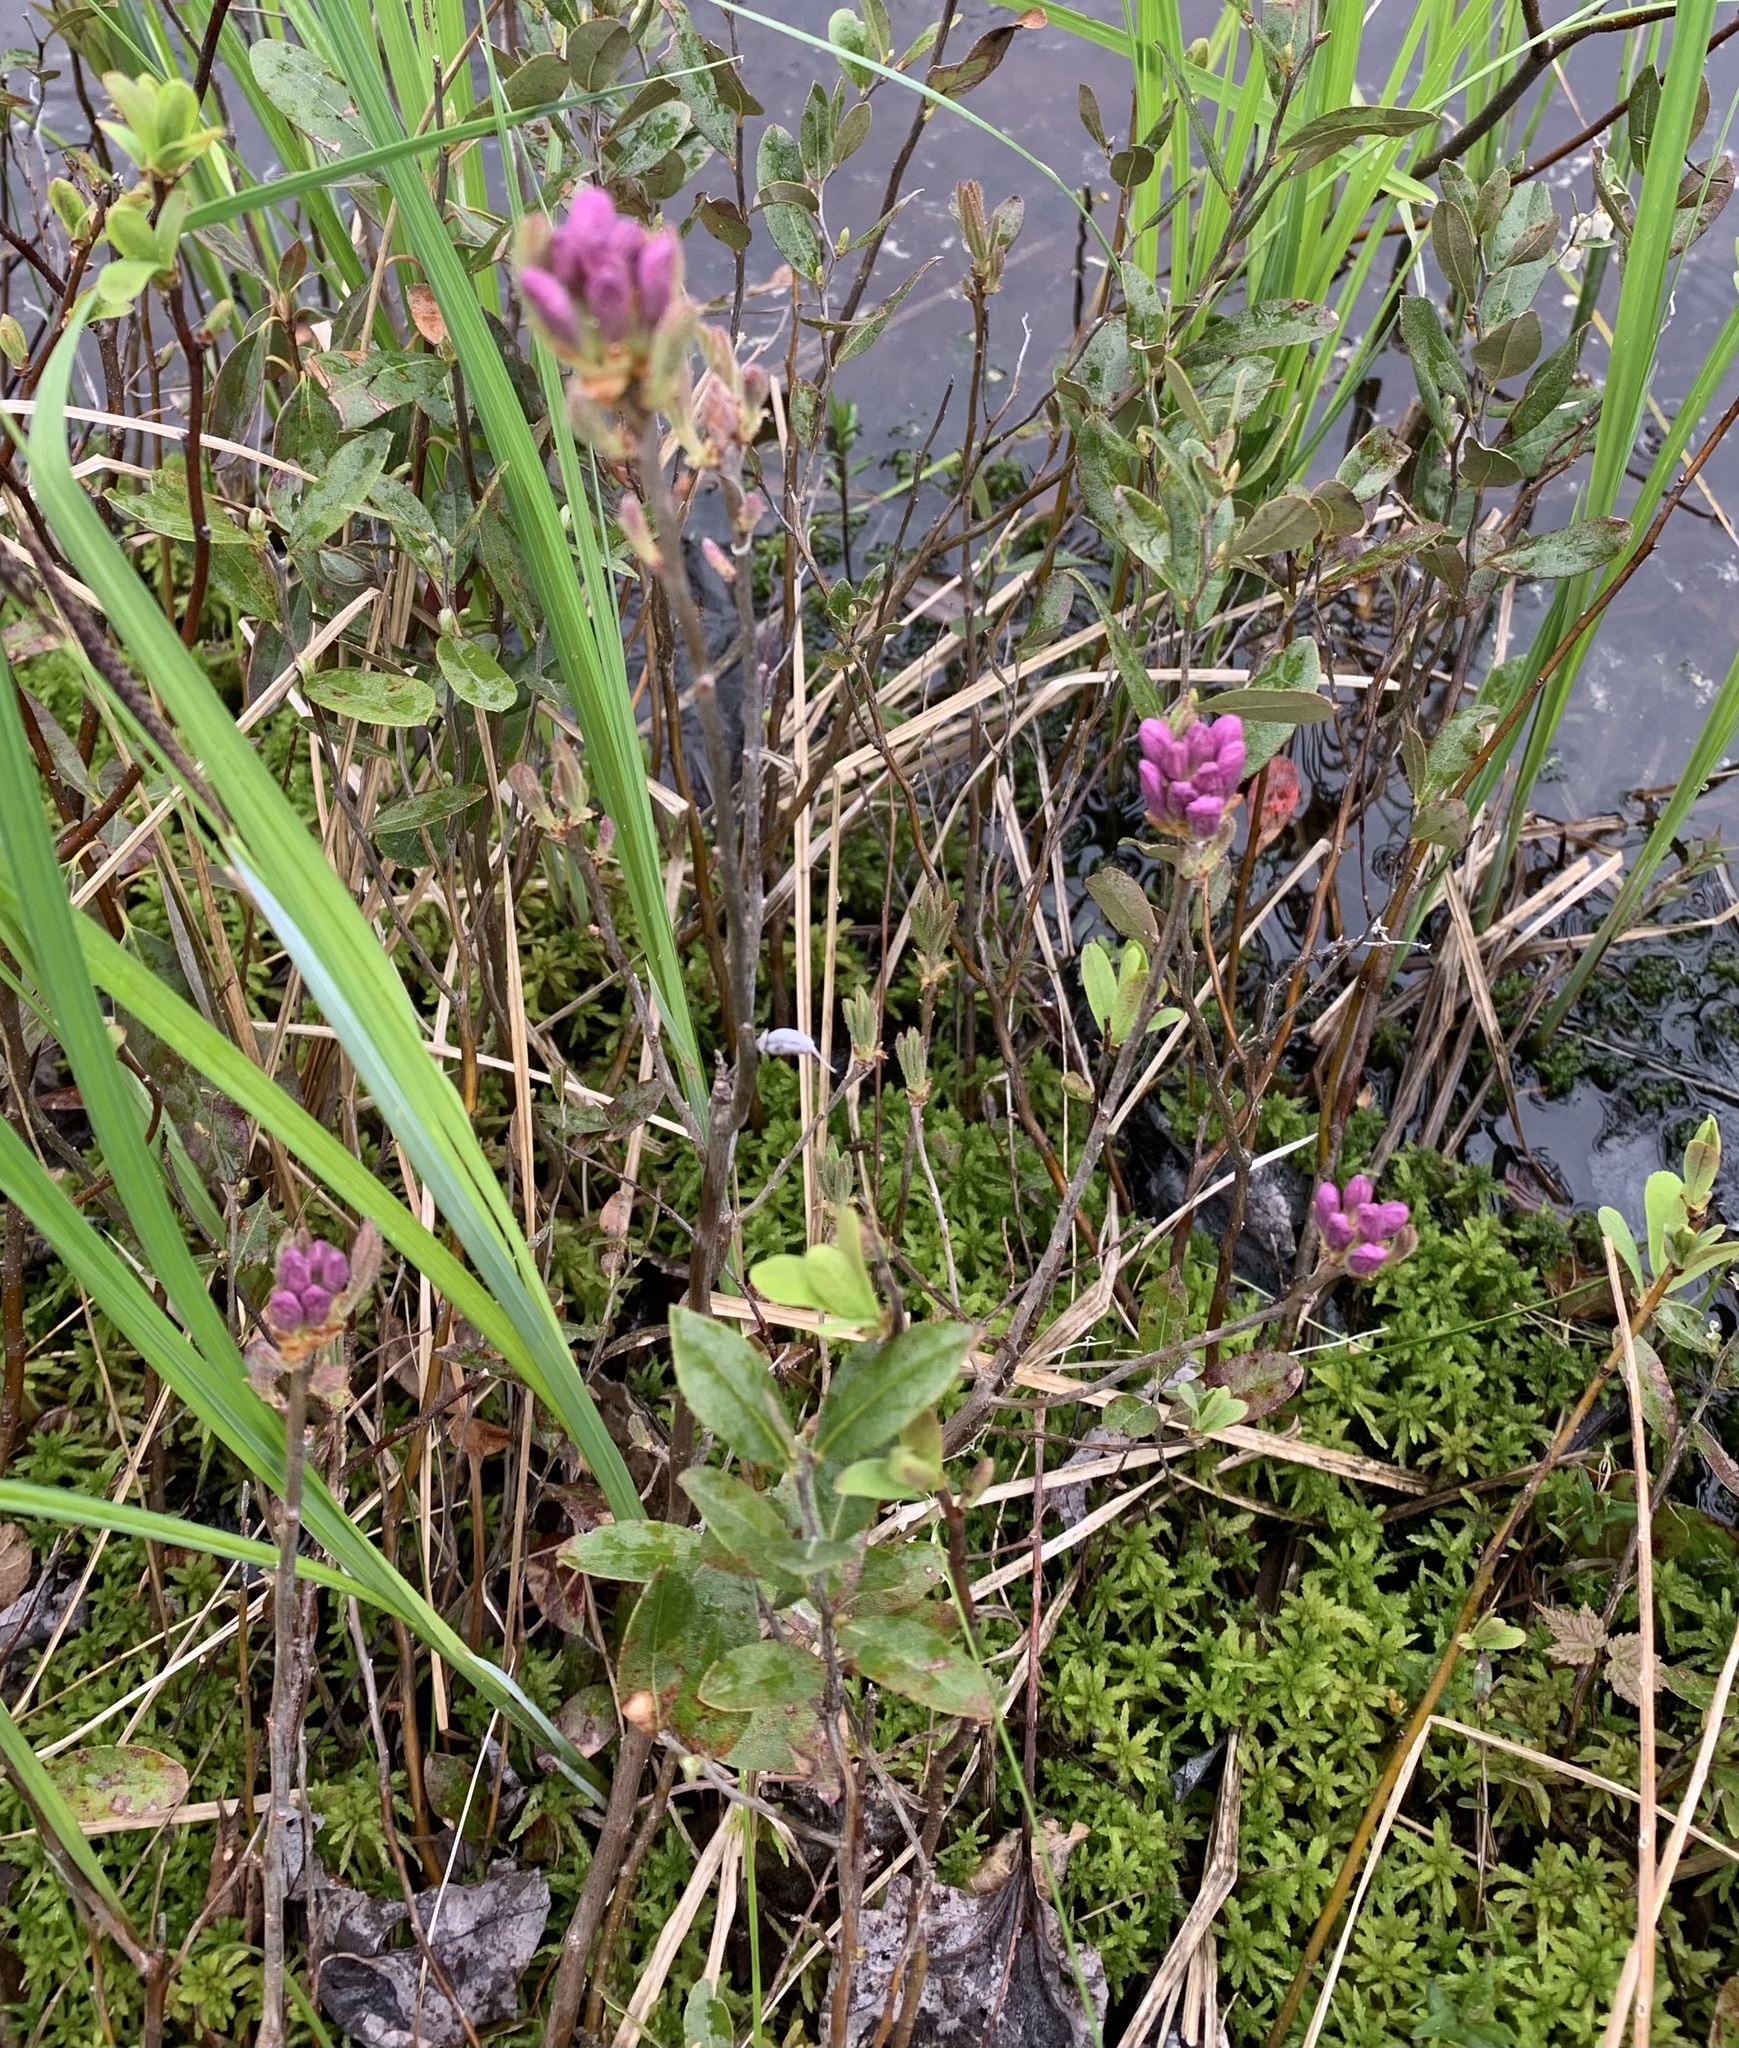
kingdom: Plantae
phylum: Tracheophyta
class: Magnoliopsida
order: Ericales
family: Ericaceae
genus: Rhododendron
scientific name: Rhododendron canadense
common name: Rhodora
